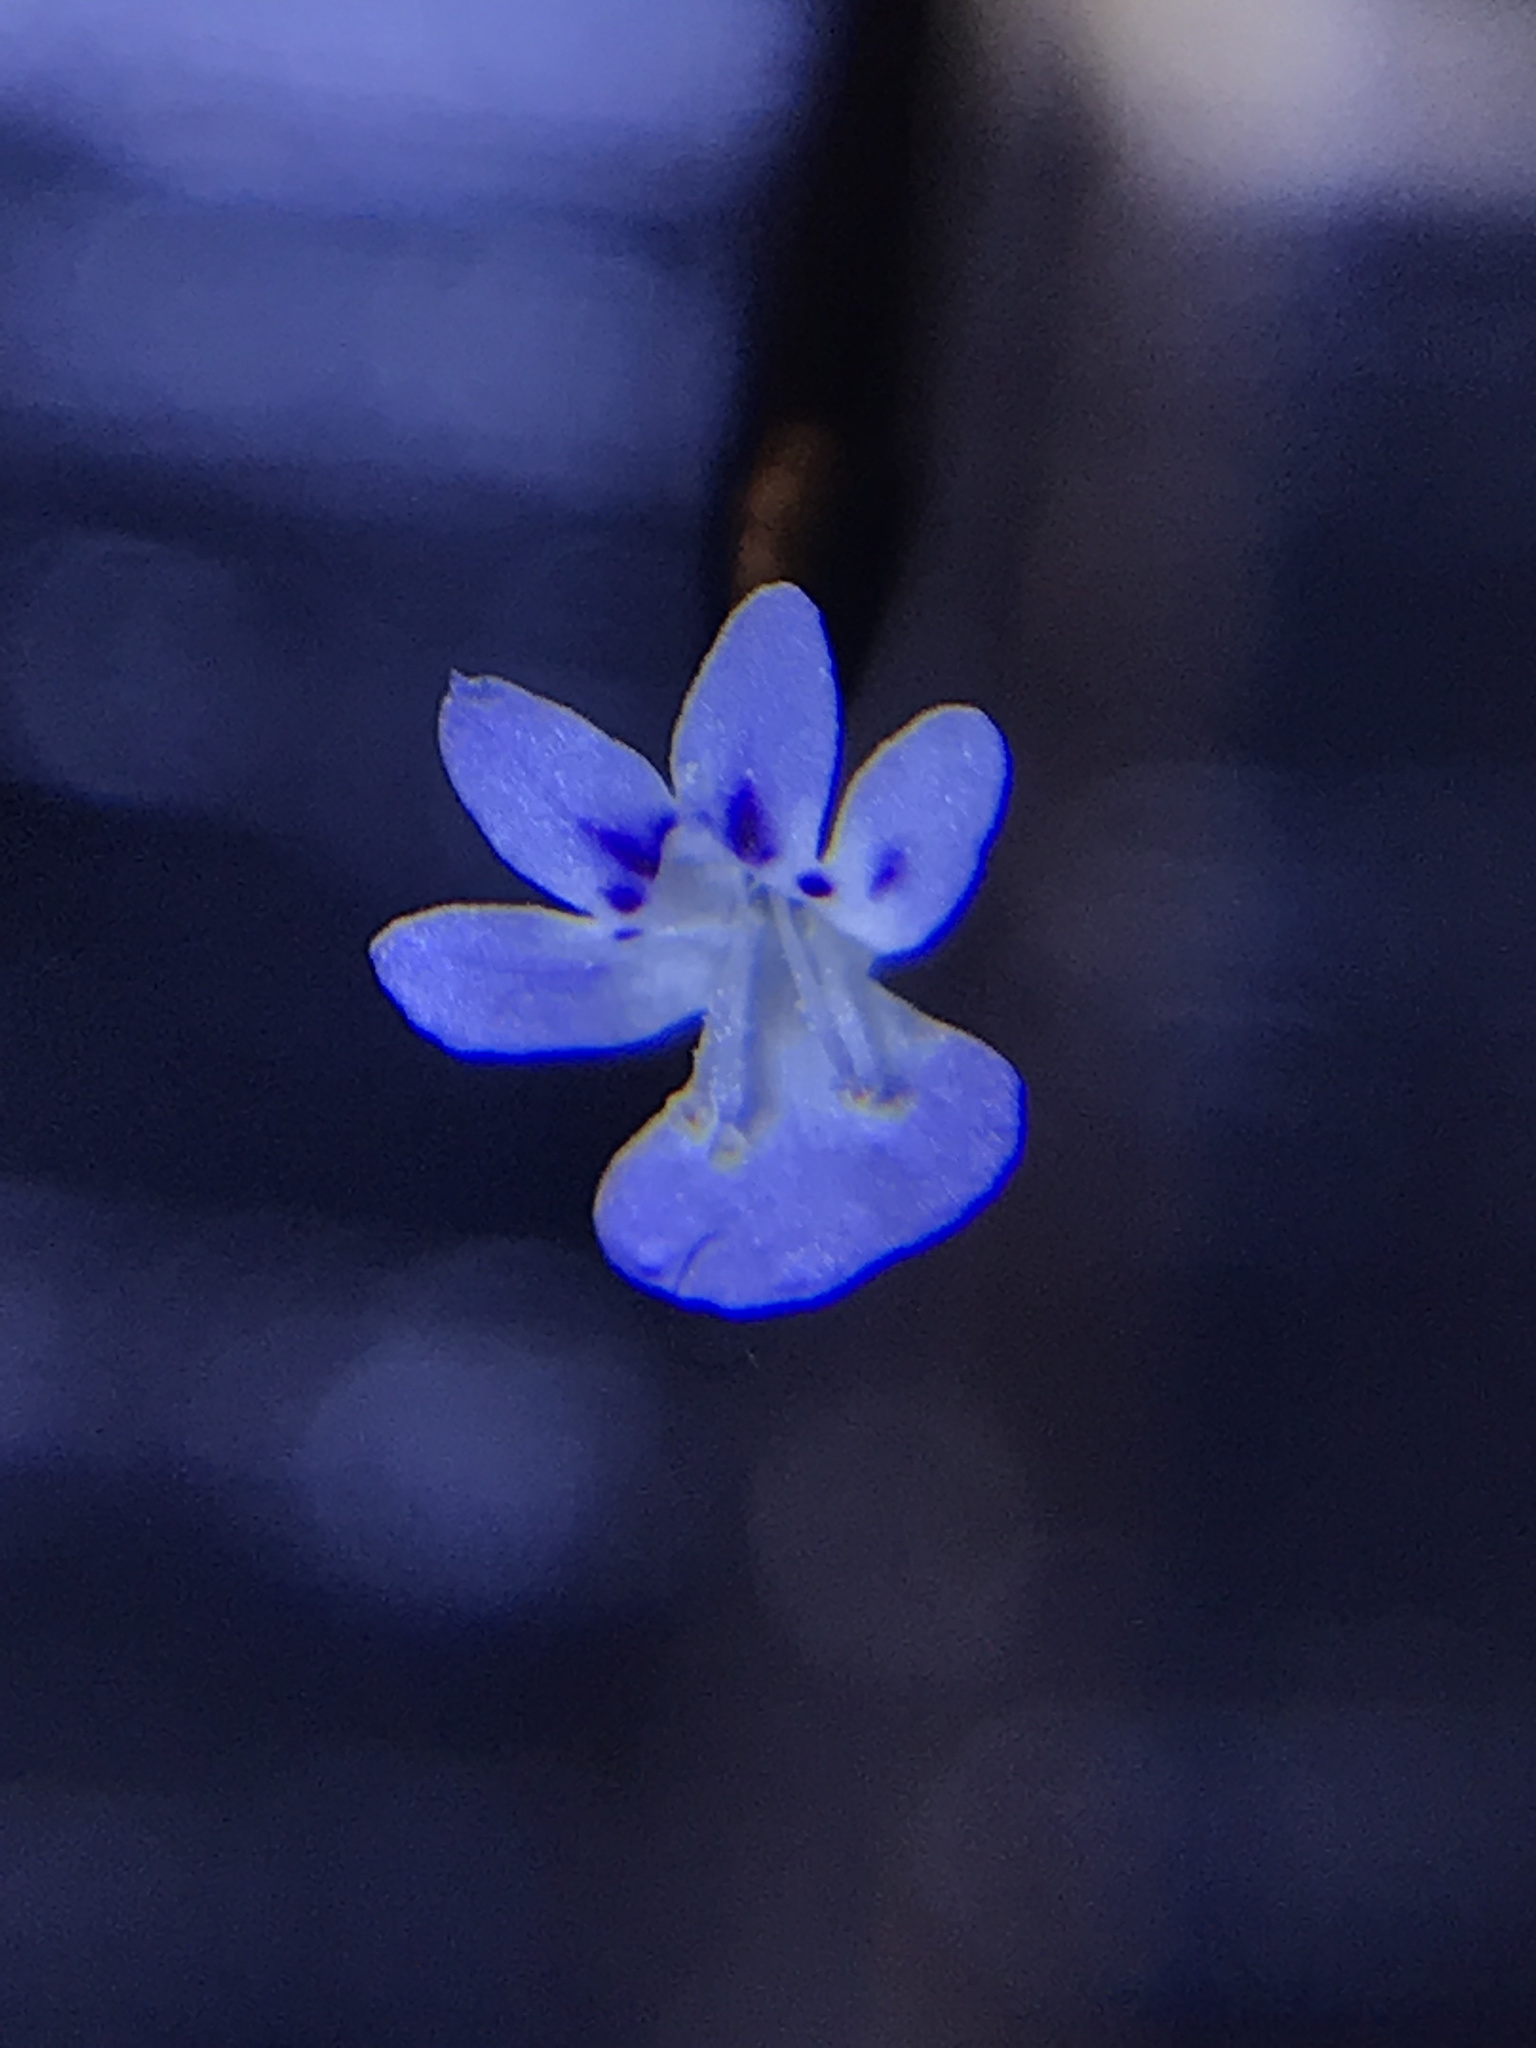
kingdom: Plantae
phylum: Tracheophyta
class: Magnoliopsida
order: Lamiales
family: Plantaginaceae
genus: Tonella
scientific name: Tonella tenella
